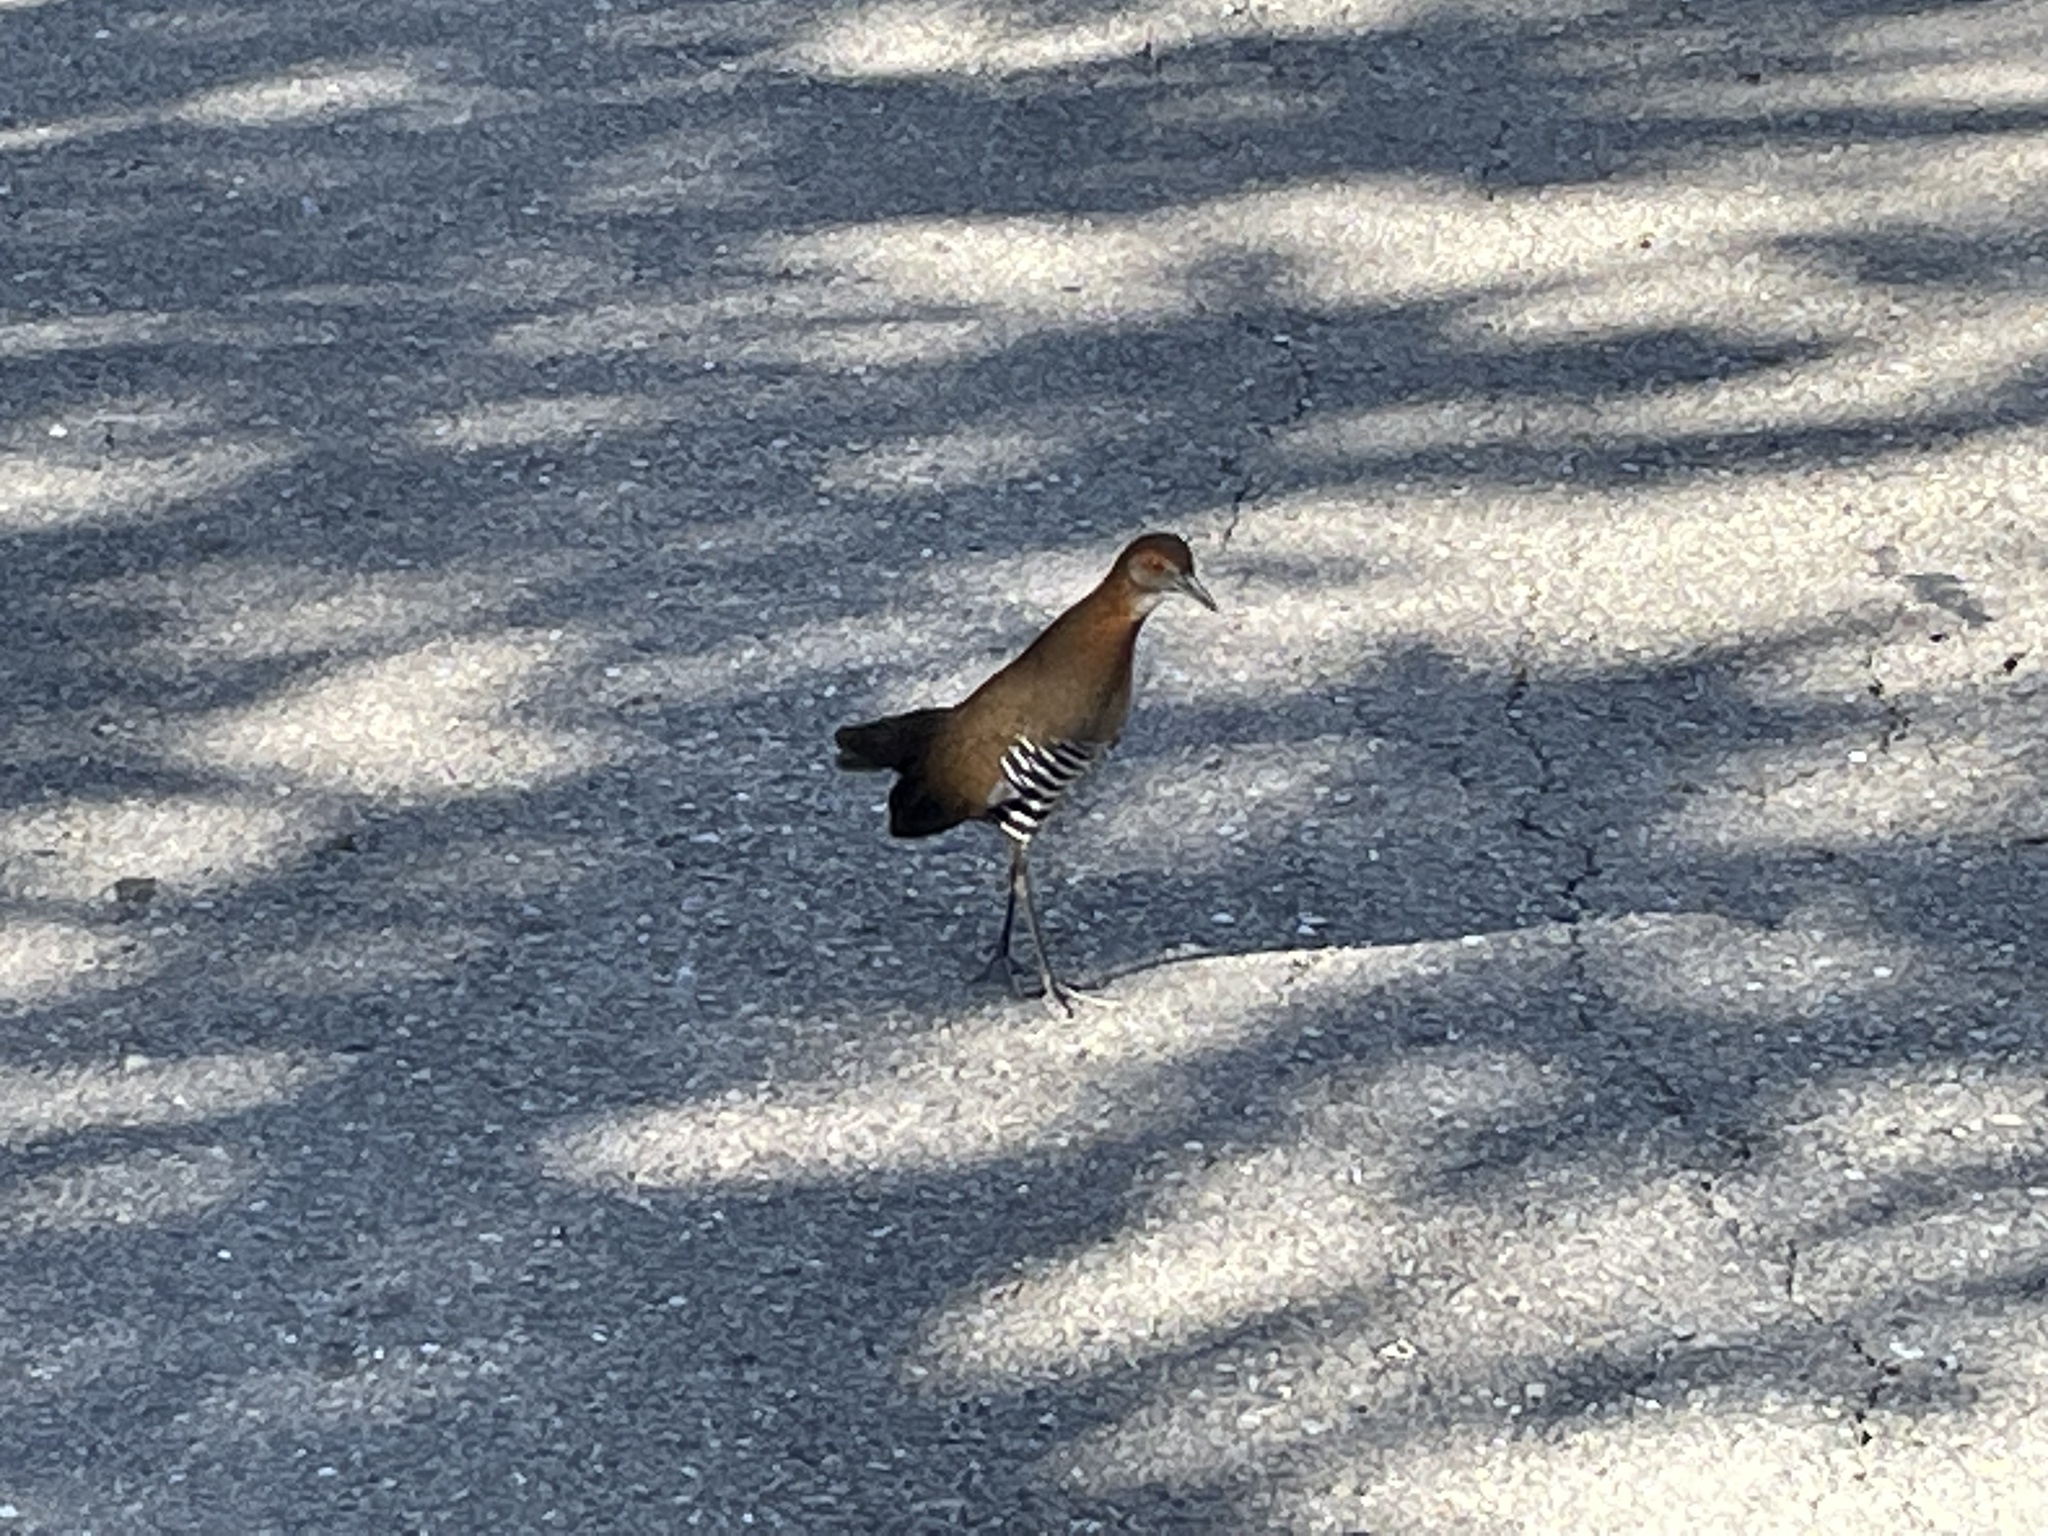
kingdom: Animalia
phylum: Chordata
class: Aves
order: Gruiformes
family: Rallidae
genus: Rallina
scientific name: Rallina eurizonoides
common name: Slaty-legged crake
